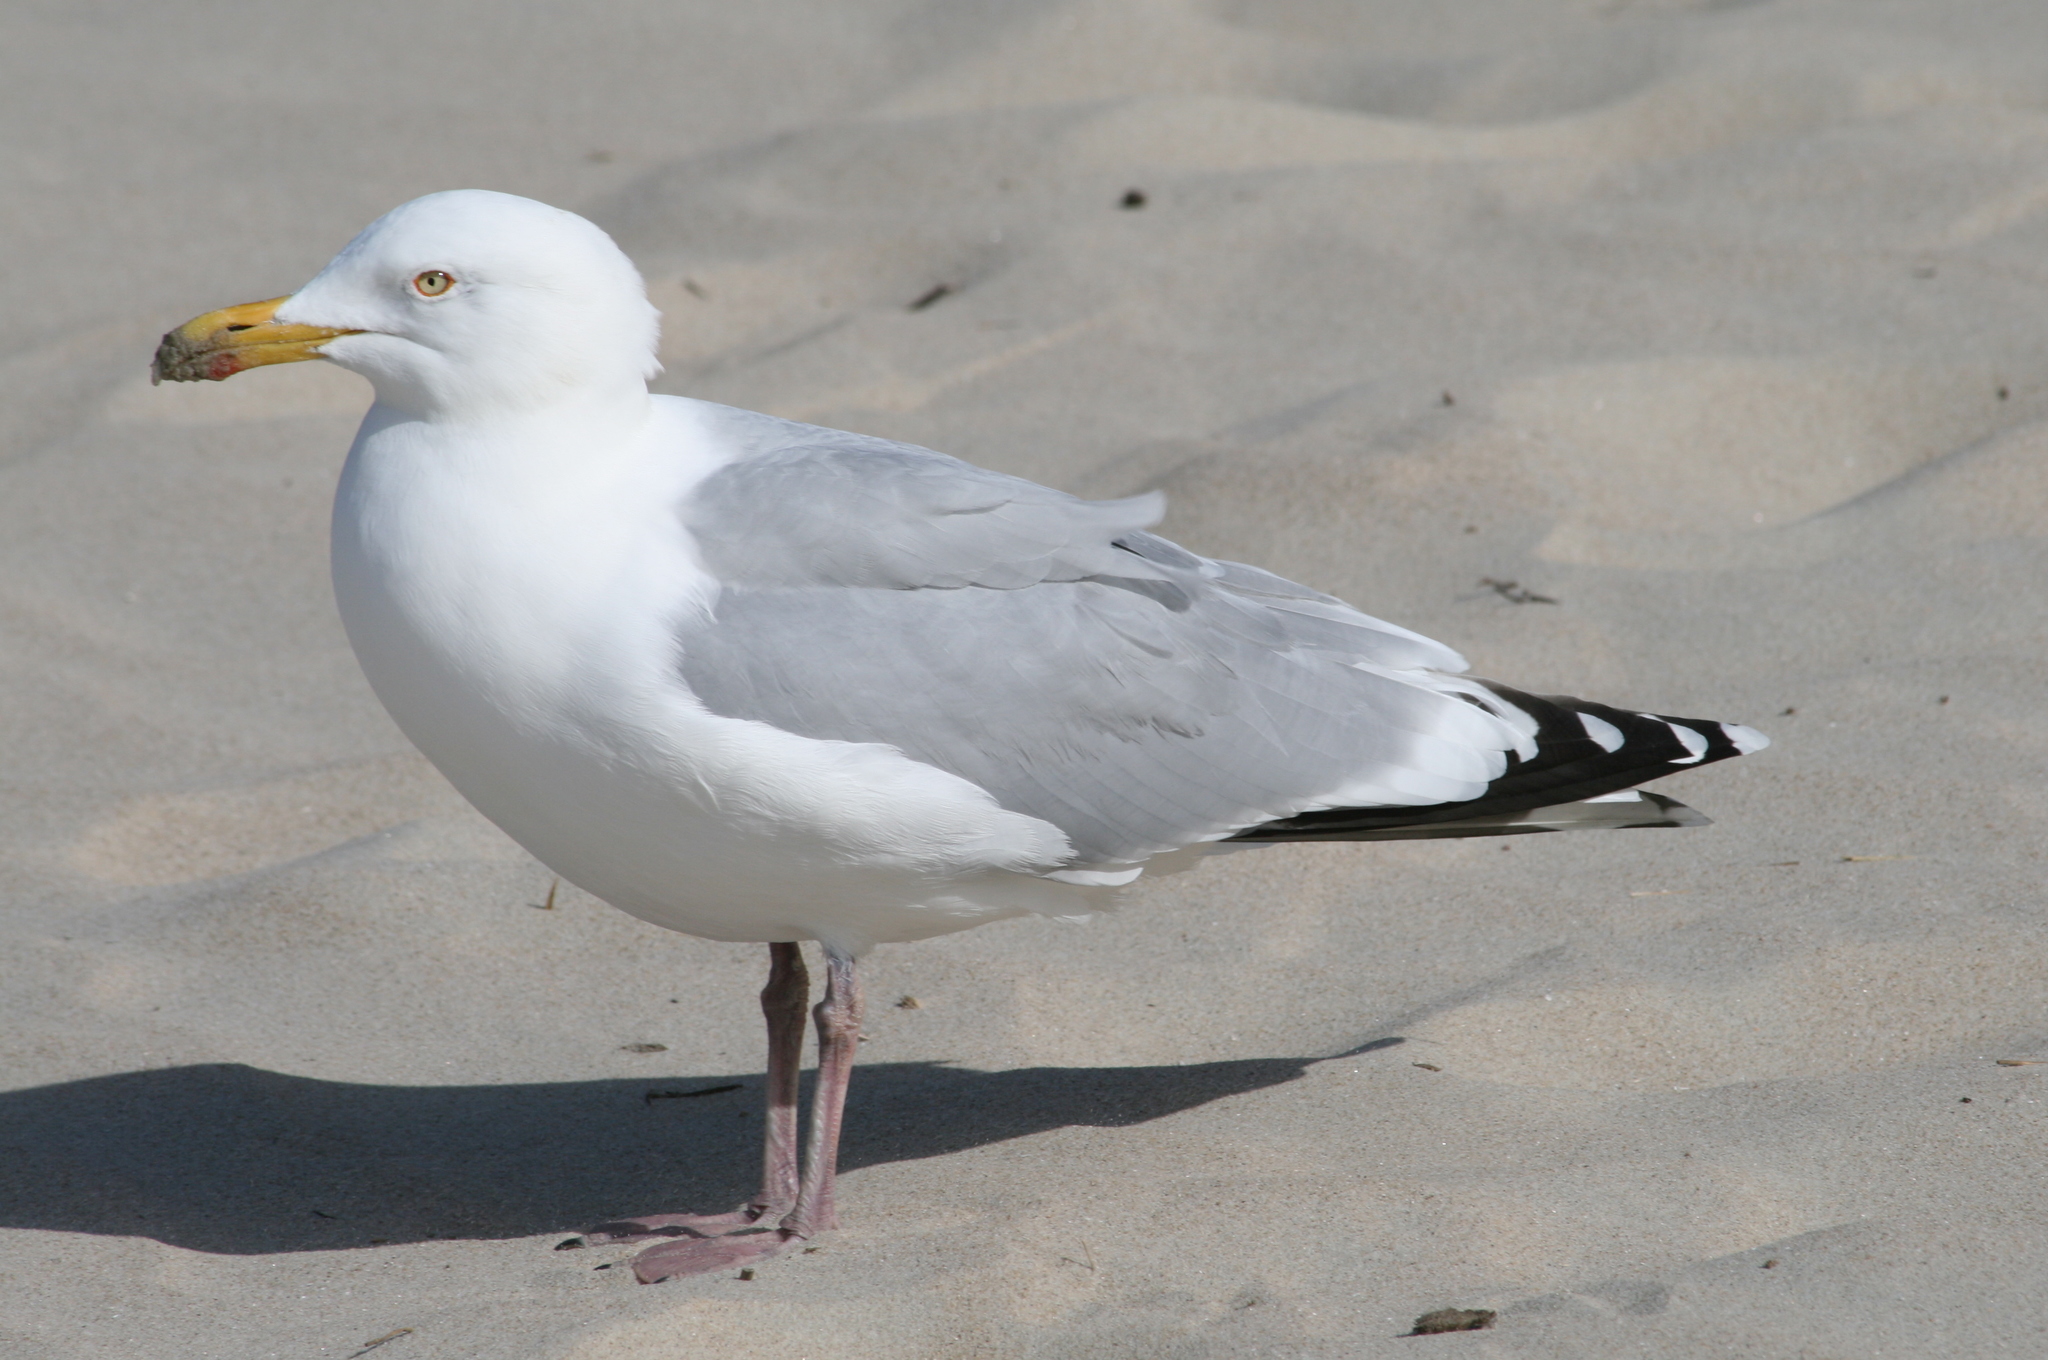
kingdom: Animalia
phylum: Chordata
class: Aves
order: Charadriiformes
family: Laridae
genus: Larus
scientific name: Larus argentatus
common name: Herring gull
